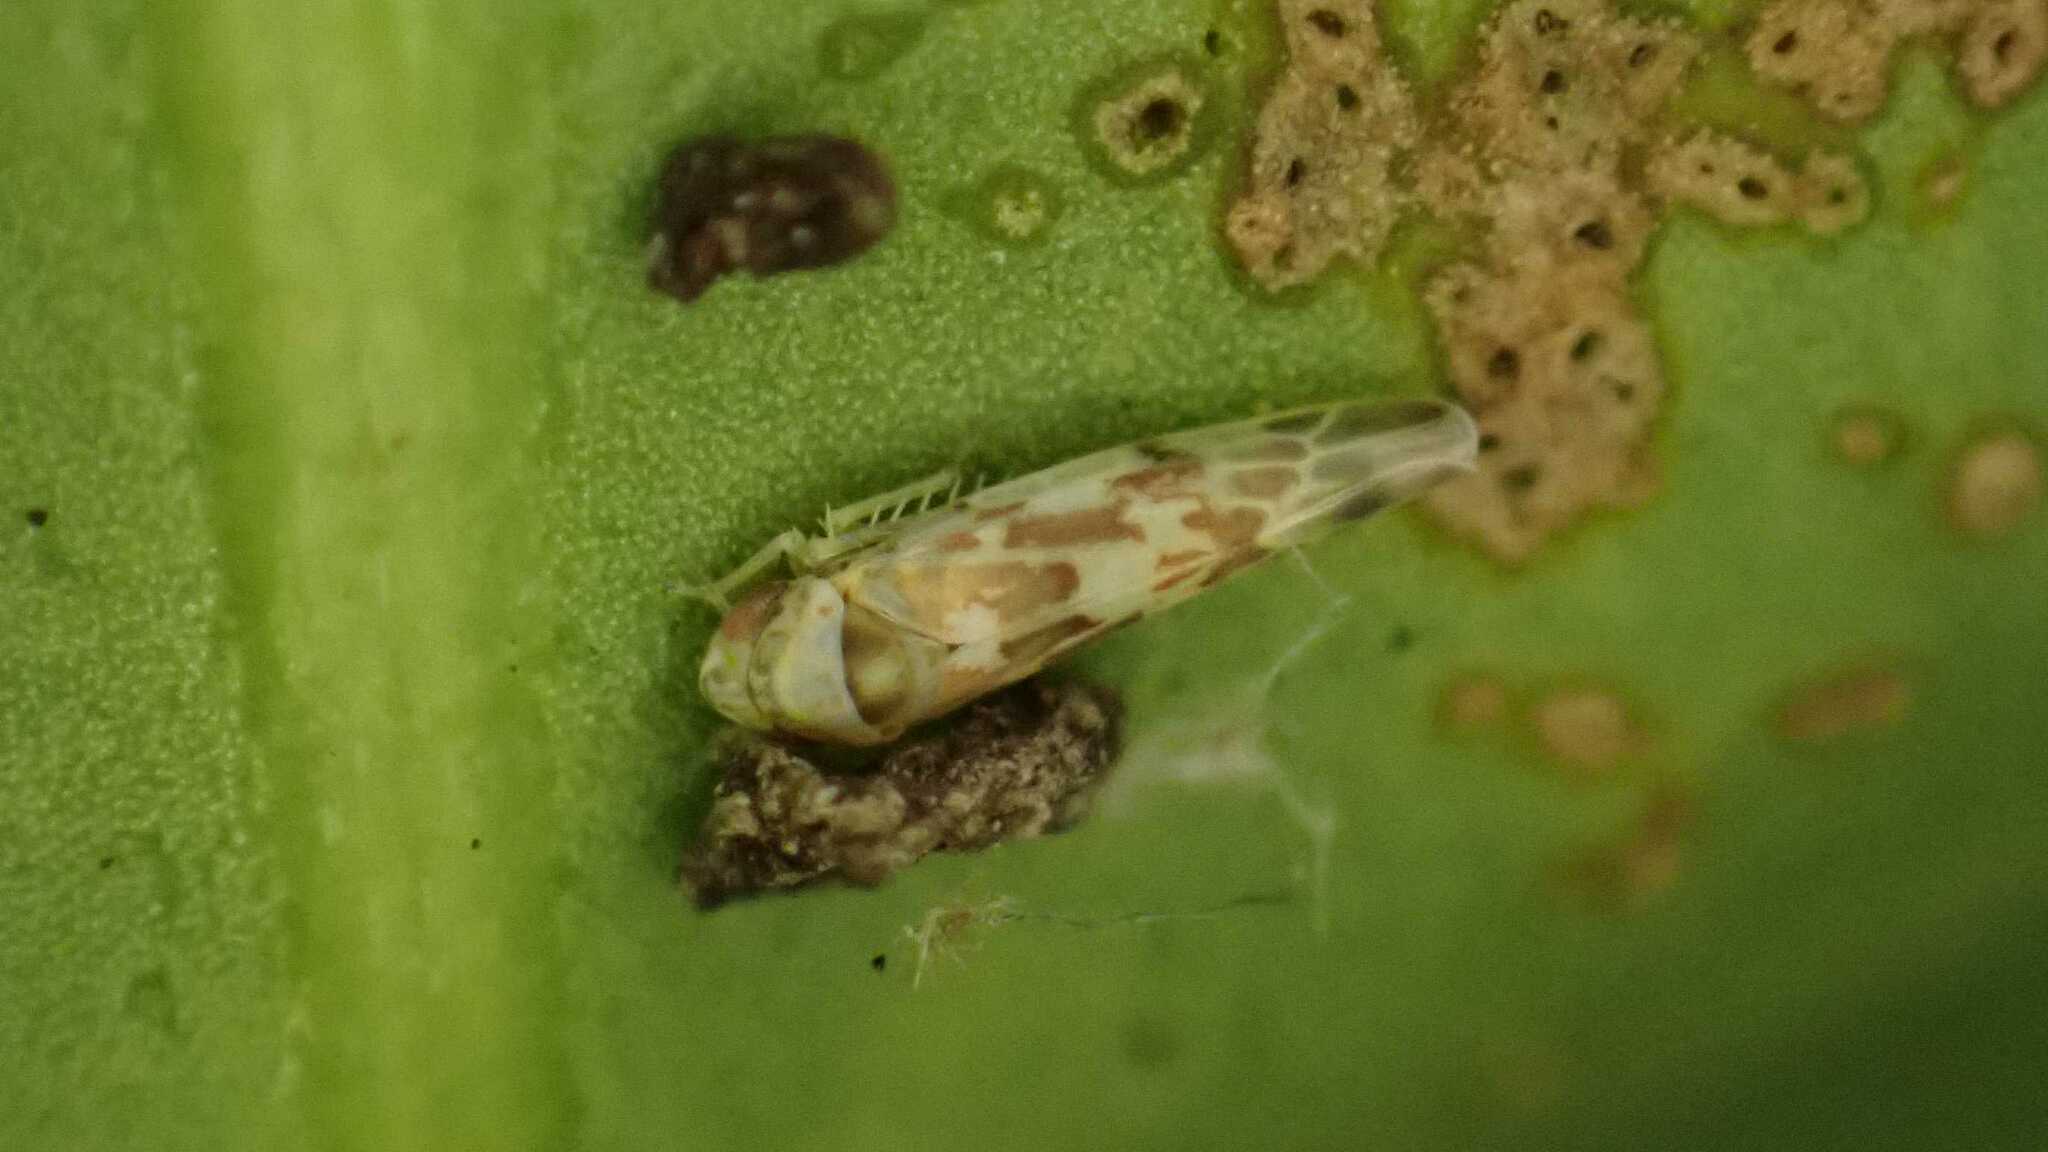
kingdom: Animalia
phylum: Arthropoda
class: Insecta
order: Hemiptera
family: Cicadellidae
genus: Tautoneura
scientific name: Tautoneura polymitusa
